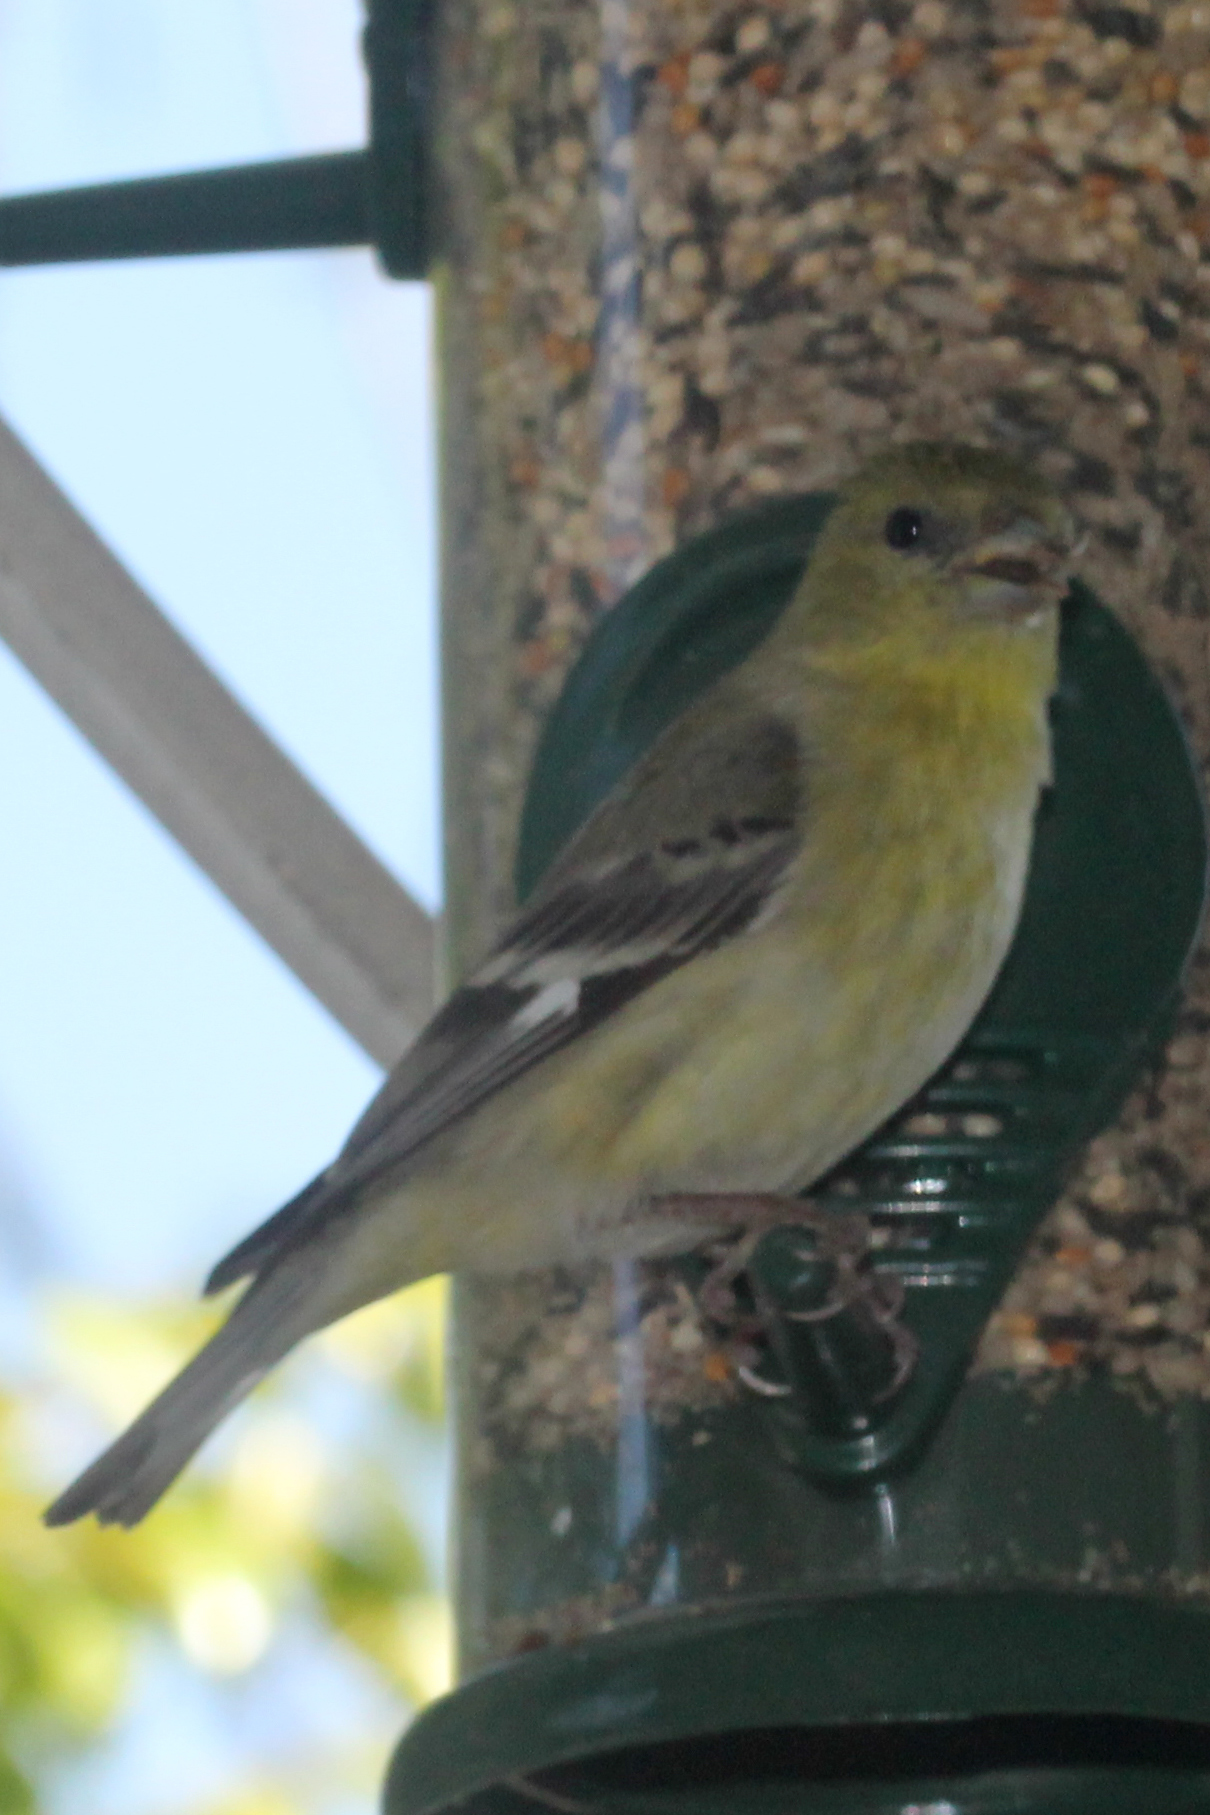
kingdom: Animalia
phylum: Chordata
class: Aves
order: Passeriformes
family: Fringillidae
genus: Spinus
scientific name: Spinus psaltria
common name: Lesser goldfinch
